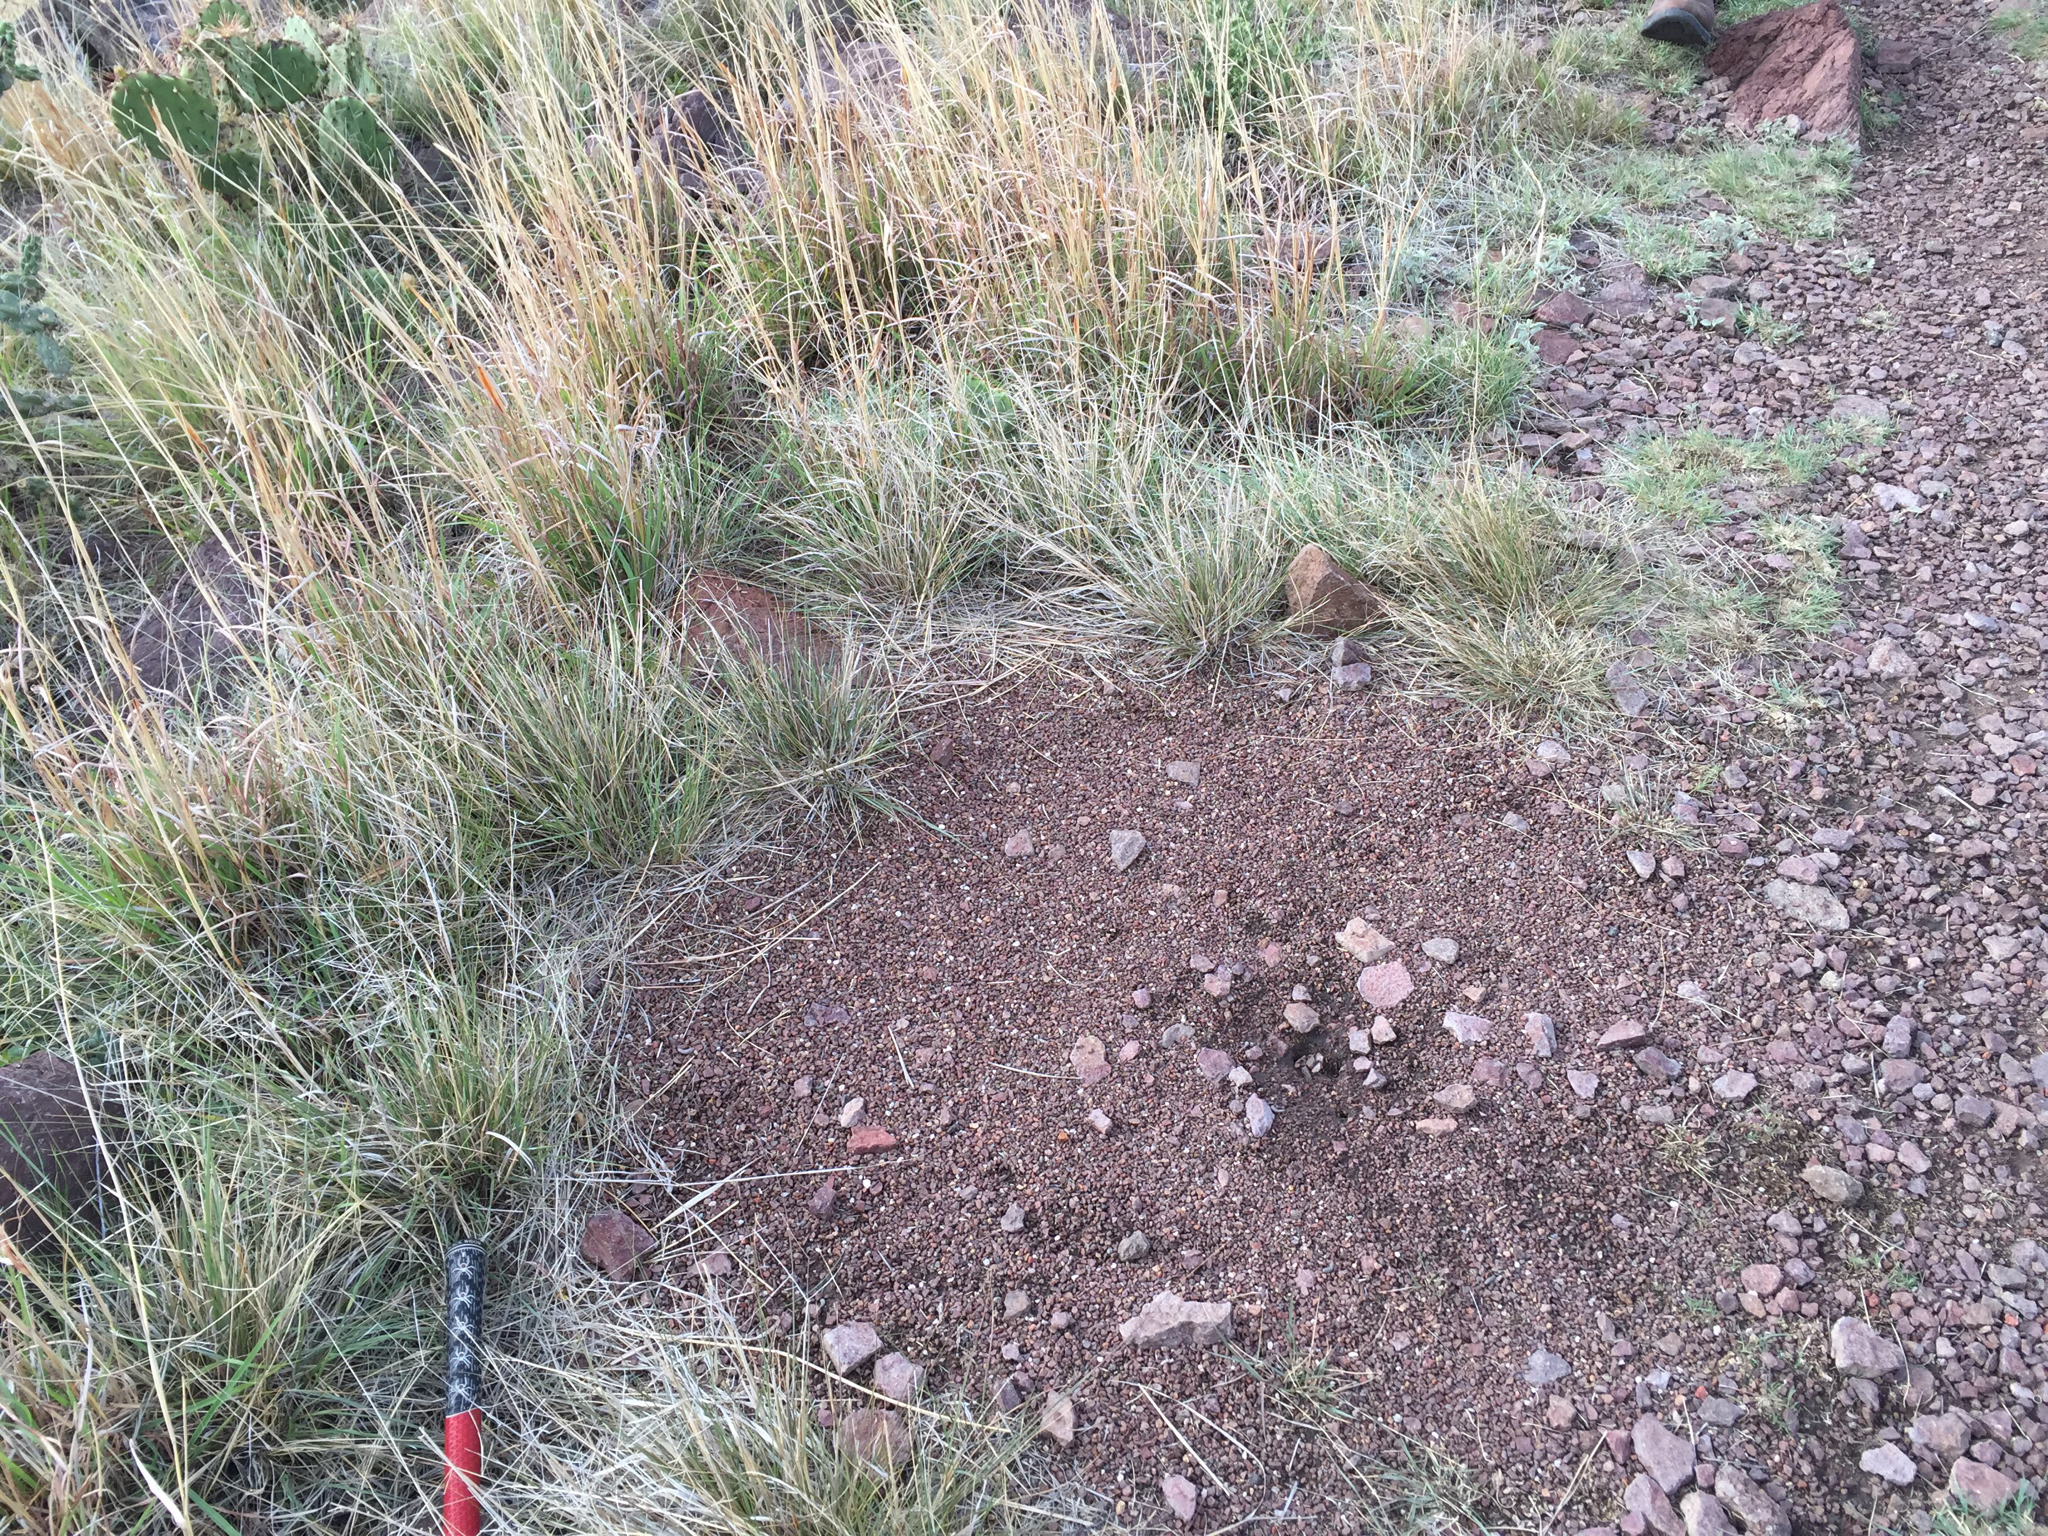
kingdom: Animalia
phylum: Arthropoda
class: Insecta
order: Hymenoptera
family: Formicidae
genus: Pogonomyrmex
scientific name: Pogonomyrmex
